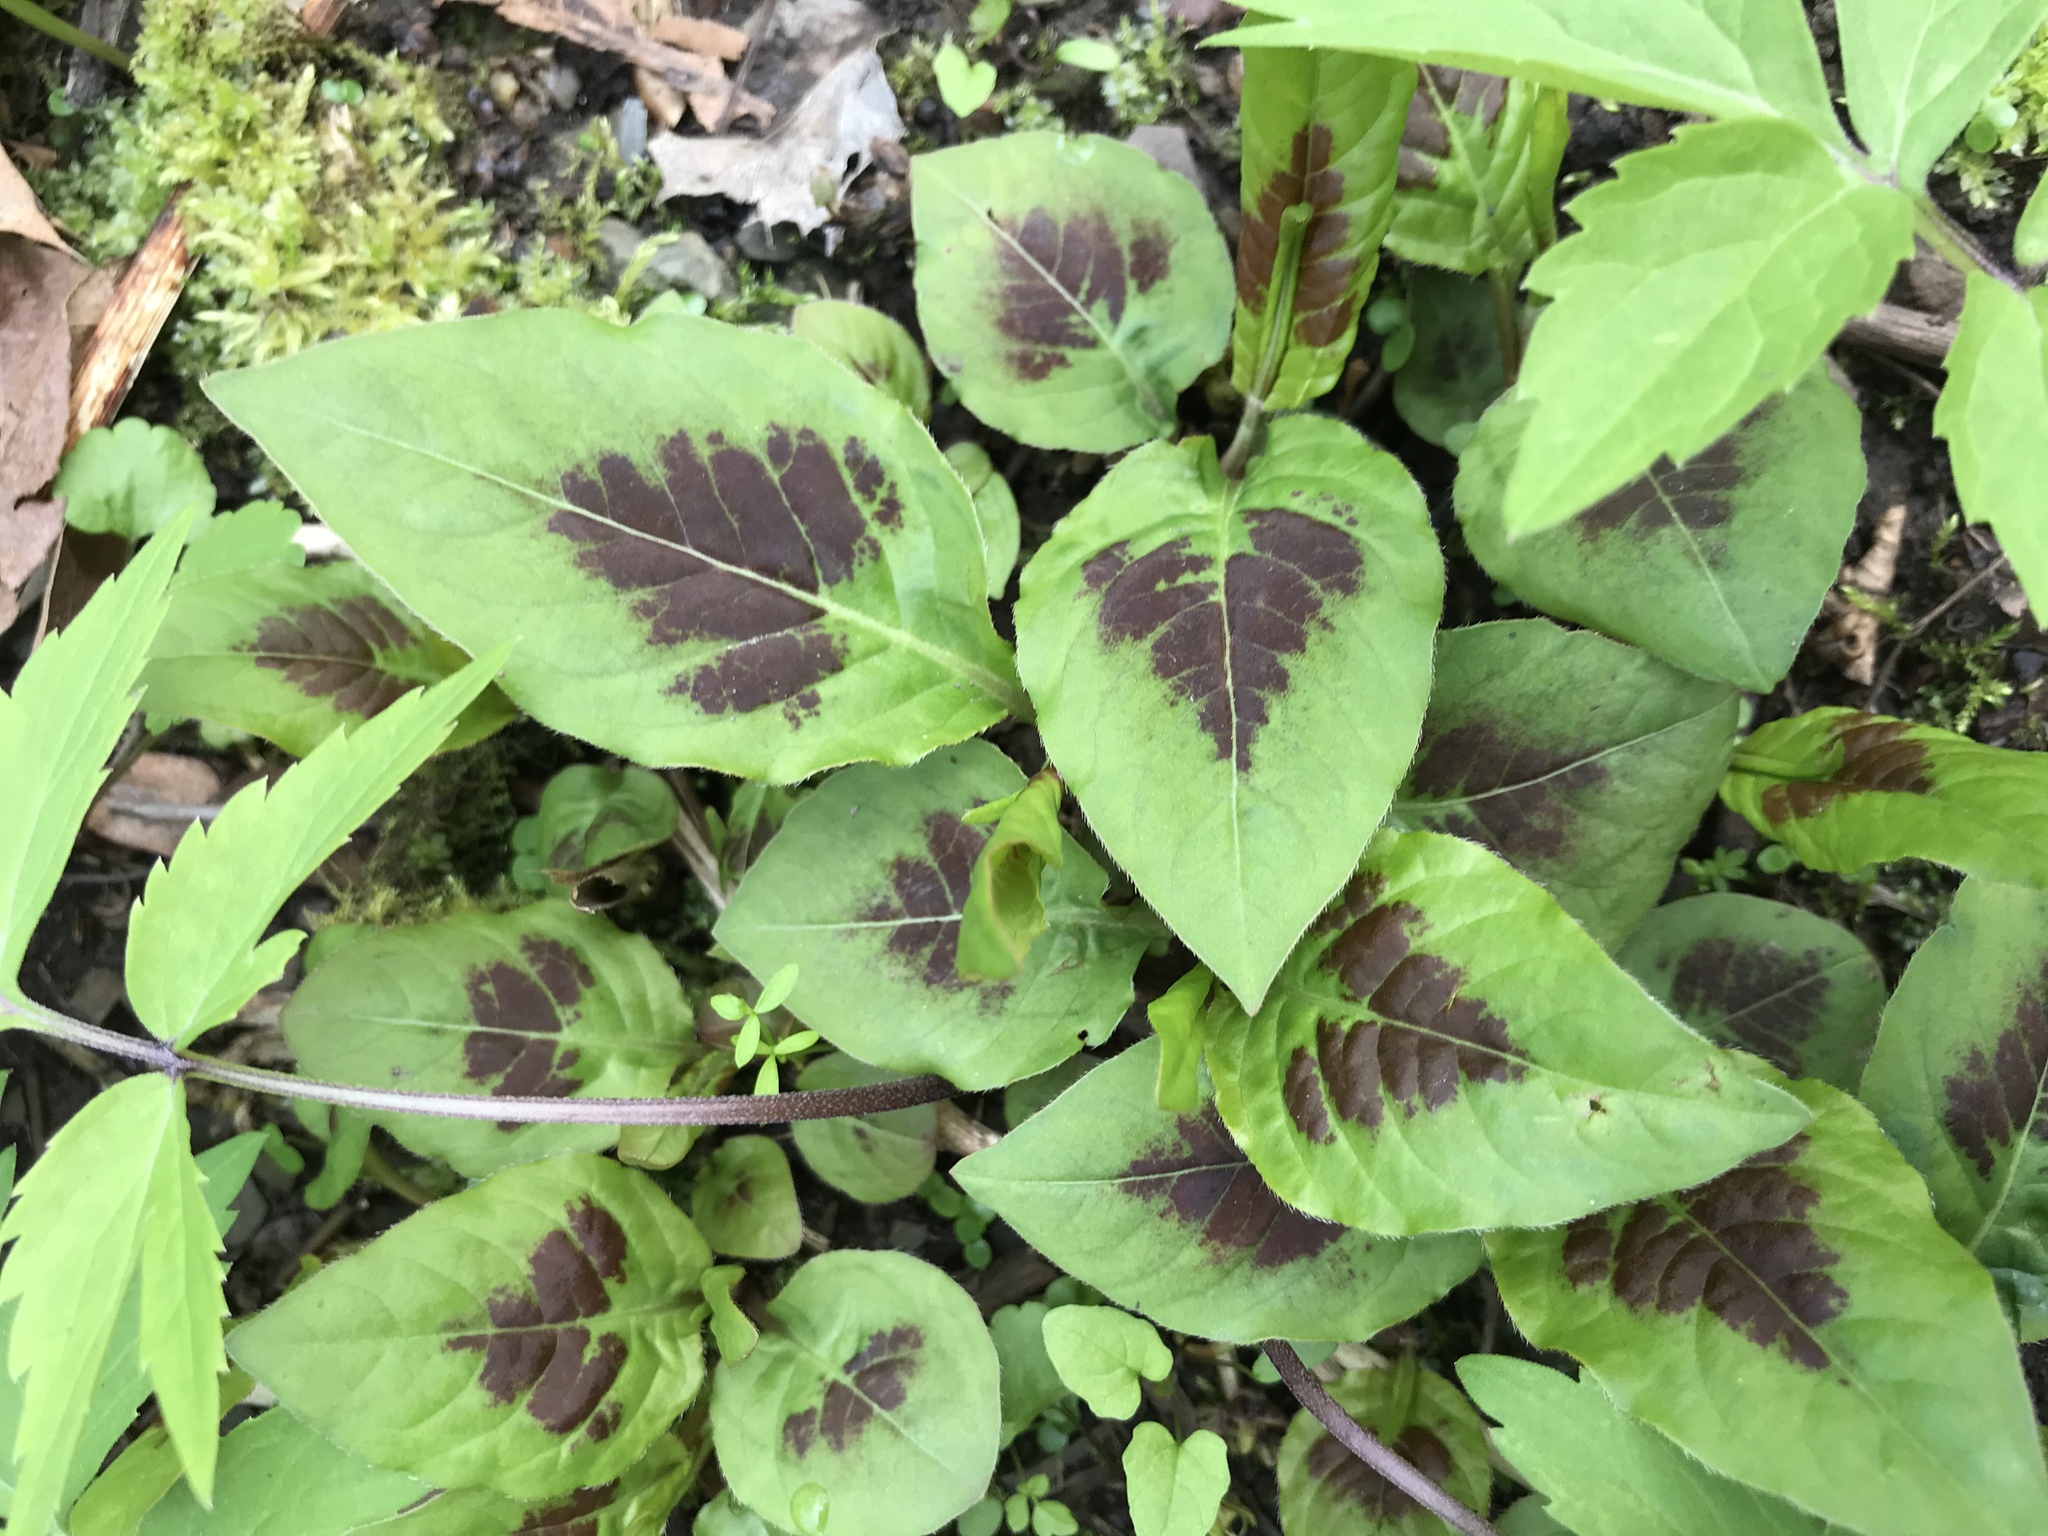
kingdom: Plantae
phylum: Tracheophyta
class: Magnoliopsida
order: Caryophyllales
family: Polygonaceae
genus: Persicaria
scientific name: Persicaria virginiana
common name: Jumpseed
